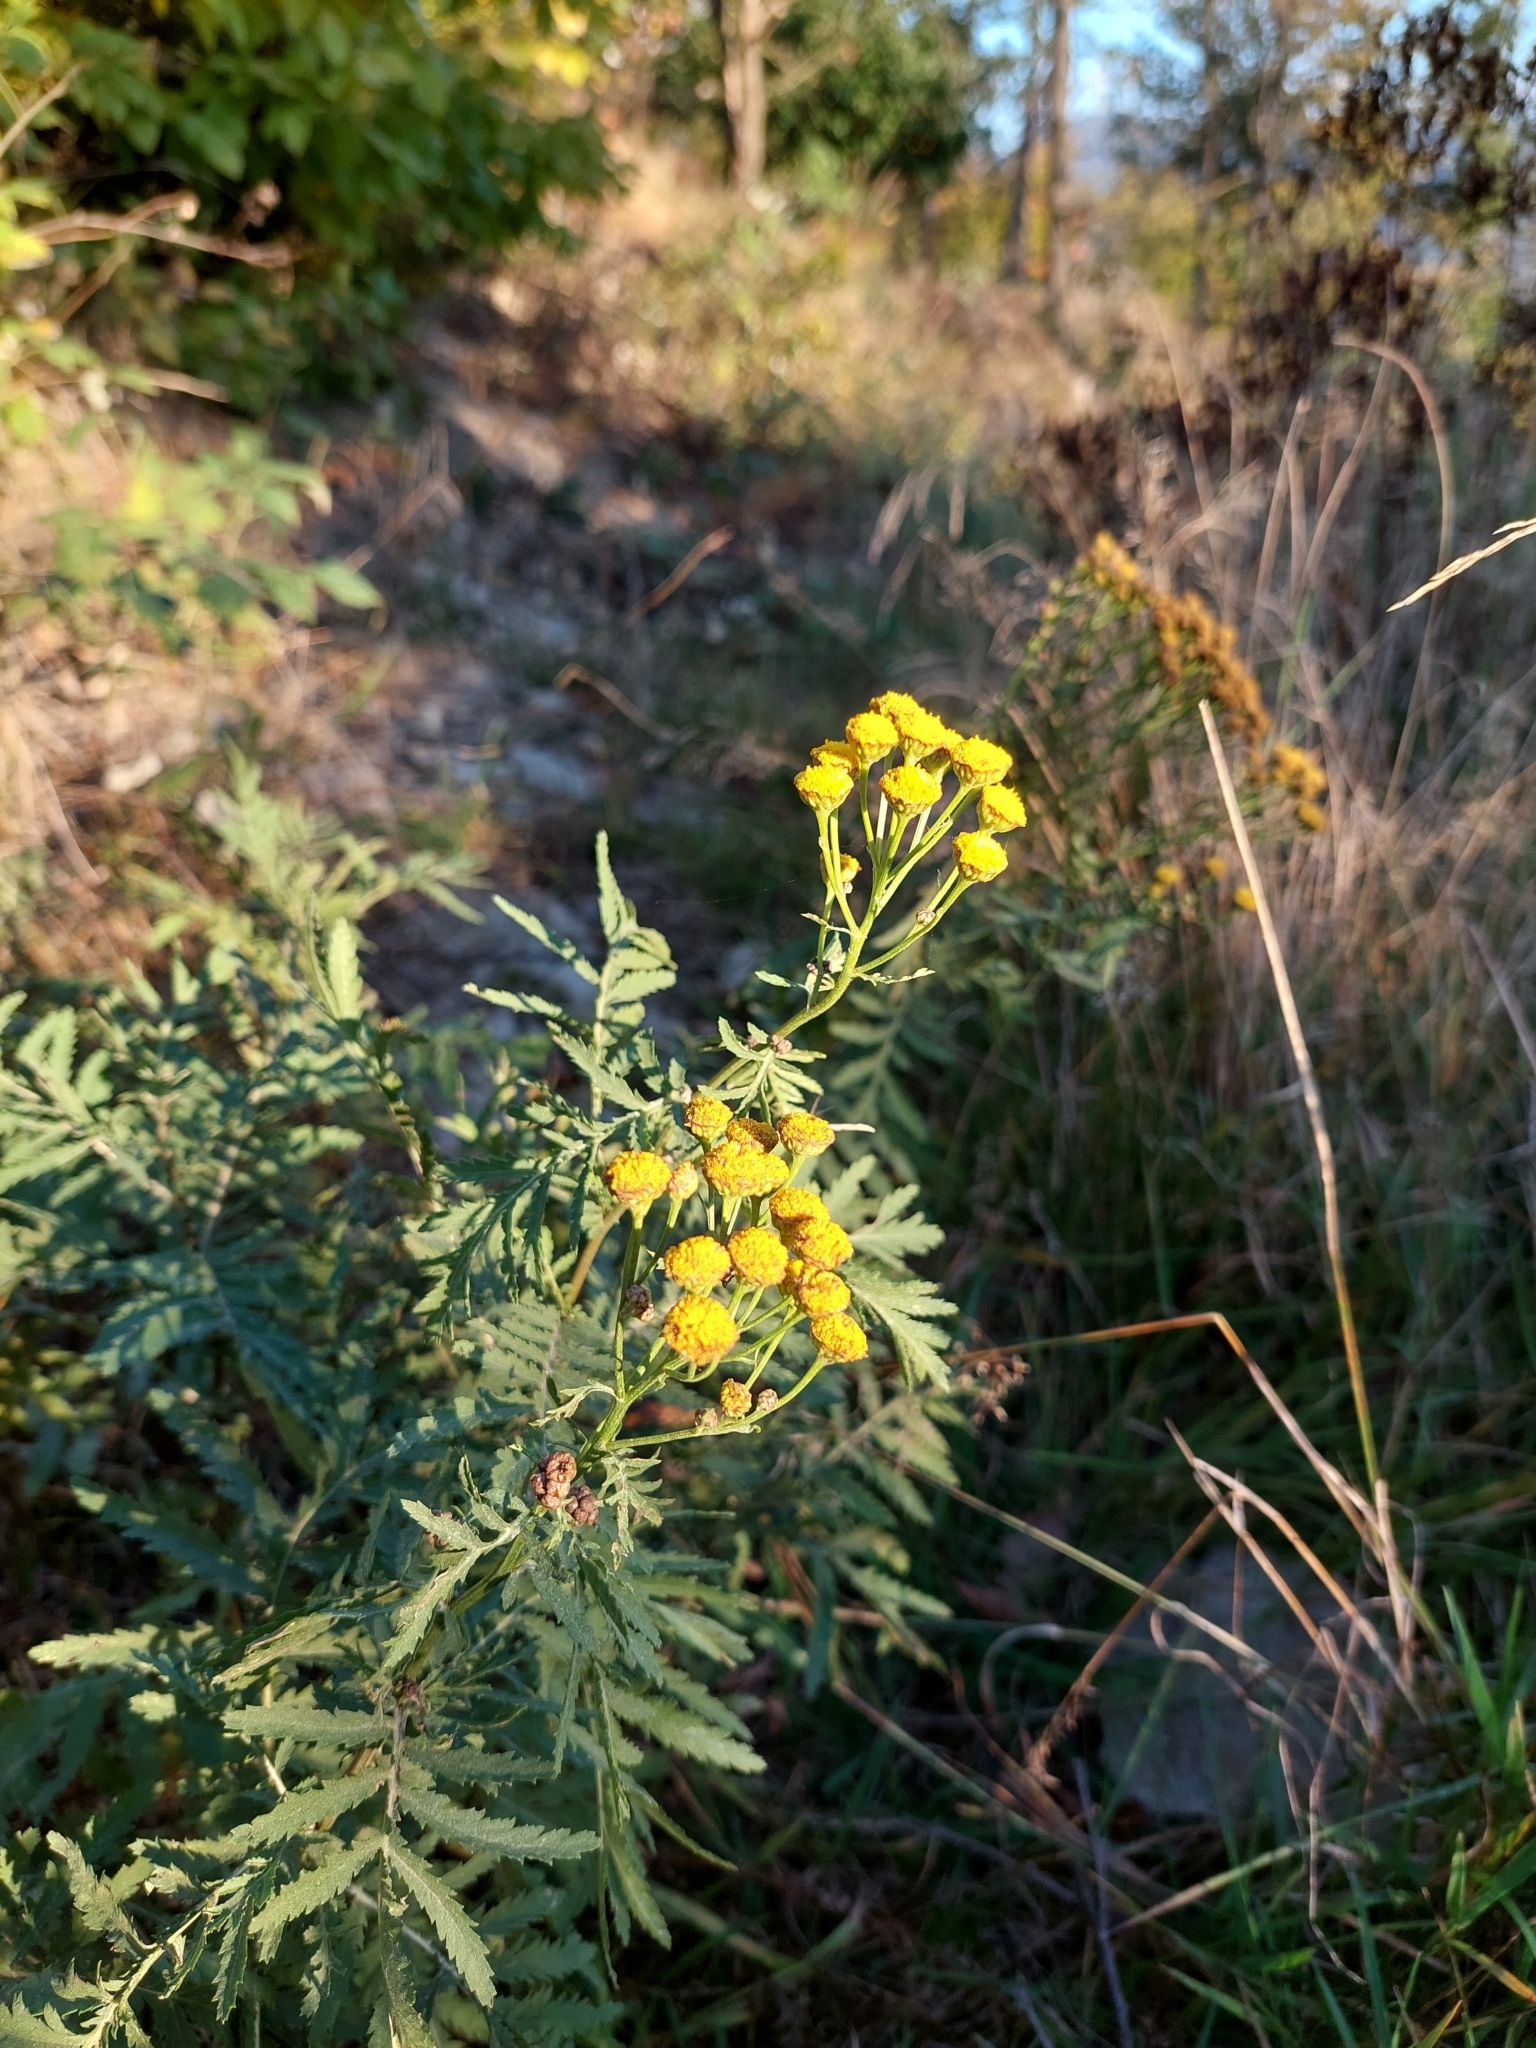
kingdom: Plantae
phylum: Tracheophyta
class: Magnoliopsida
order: Asterales
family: Asteraceae
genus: Tanacetum
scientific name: Tanacetum vulgare
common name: Common tansy
